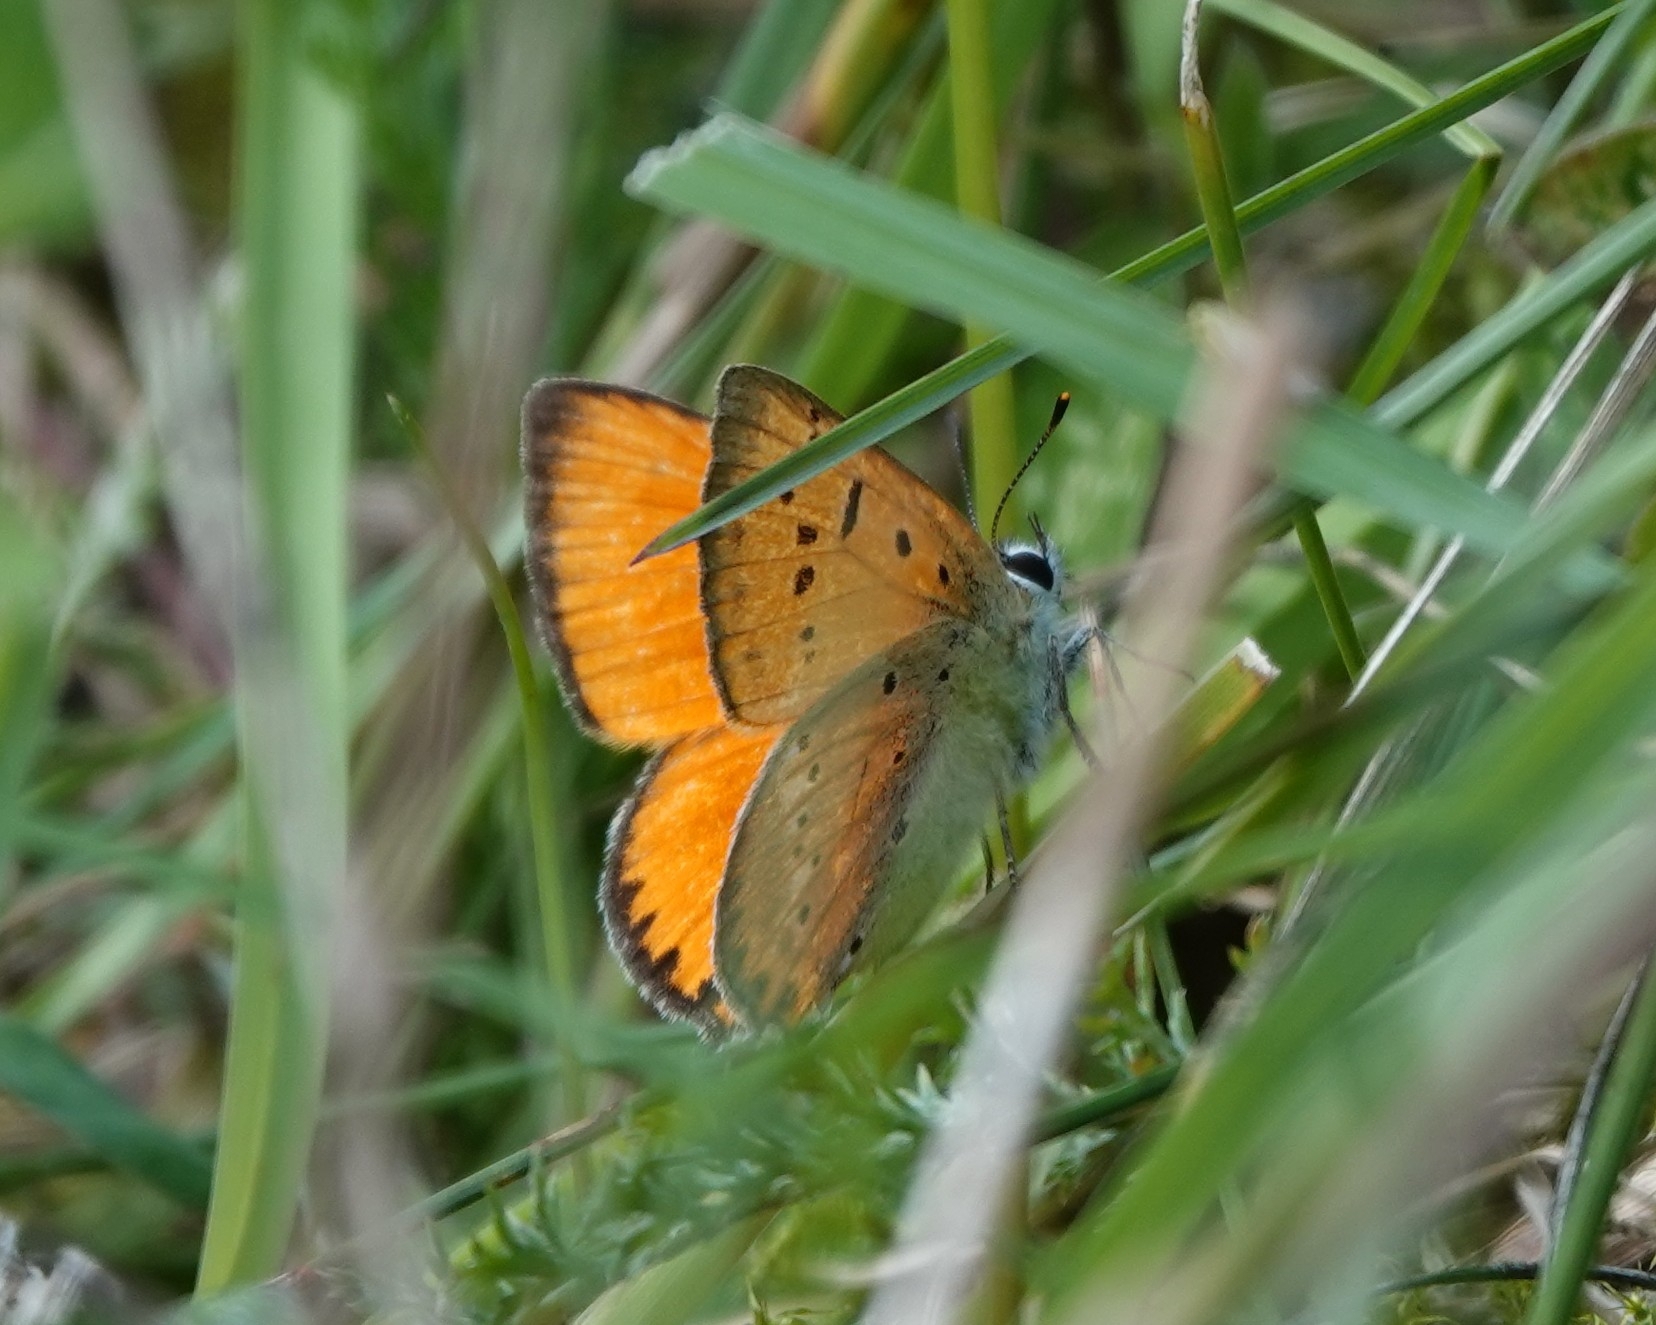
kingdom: Animalia
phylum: Arthropoda
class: Insecta
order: Lepidoptera
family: Lycaenidae
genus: Lycaena
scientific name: Lycaena virgaureae
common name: Scarce copper
